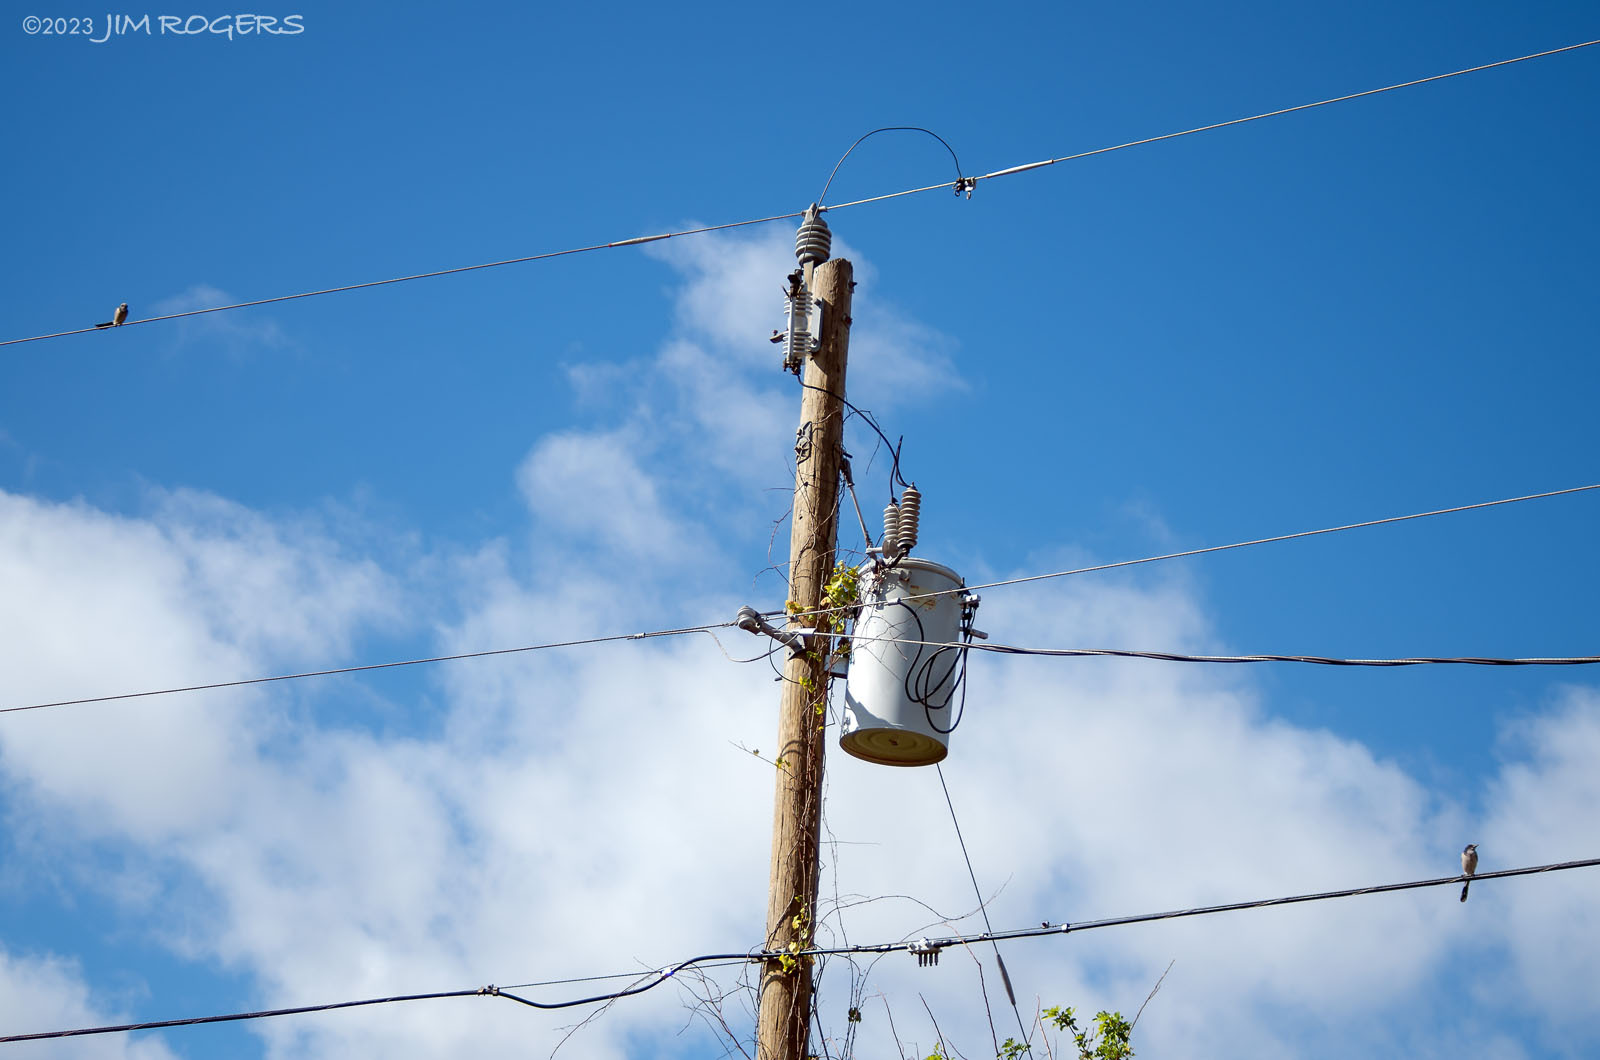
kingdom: Animalia
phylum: Chordata
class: Aves
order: Passeriformes
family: Corvidae
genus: Aphelocoma
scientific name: Aphelocoma coerulescens
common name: Florida scrub jay
